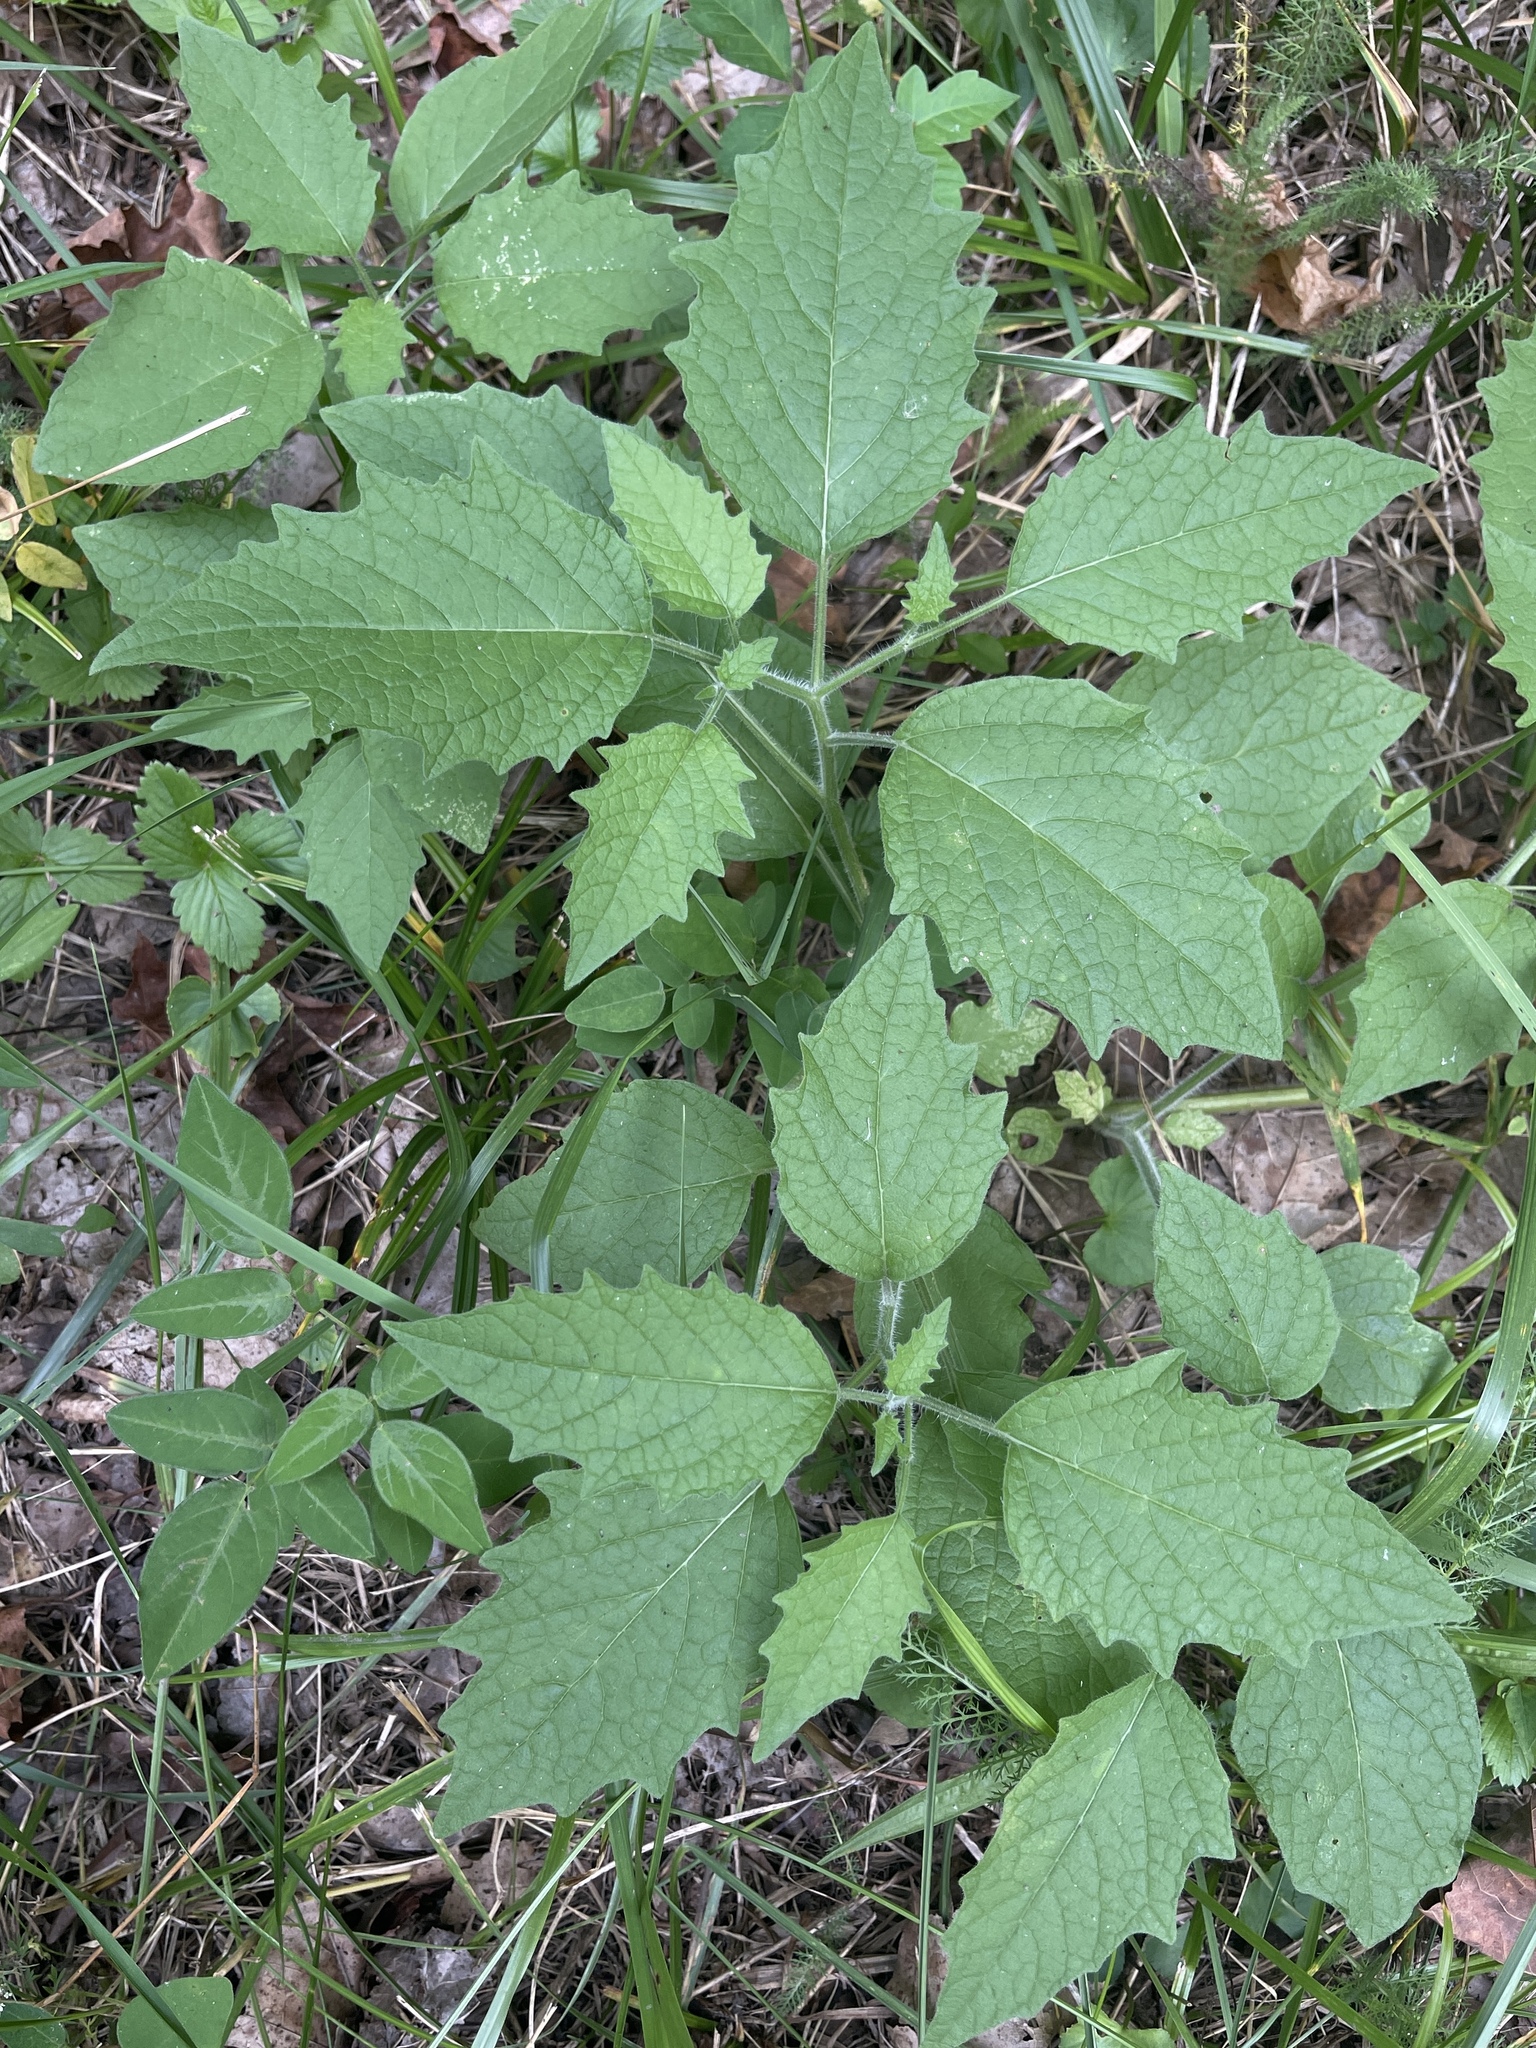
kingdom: Plantae
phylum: Tracheophyta
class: Magnoliopsida
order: Solanales
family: Solanaceae
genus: Physalis
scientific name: Physalis heterophylla
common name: Clammy ground-cherry
